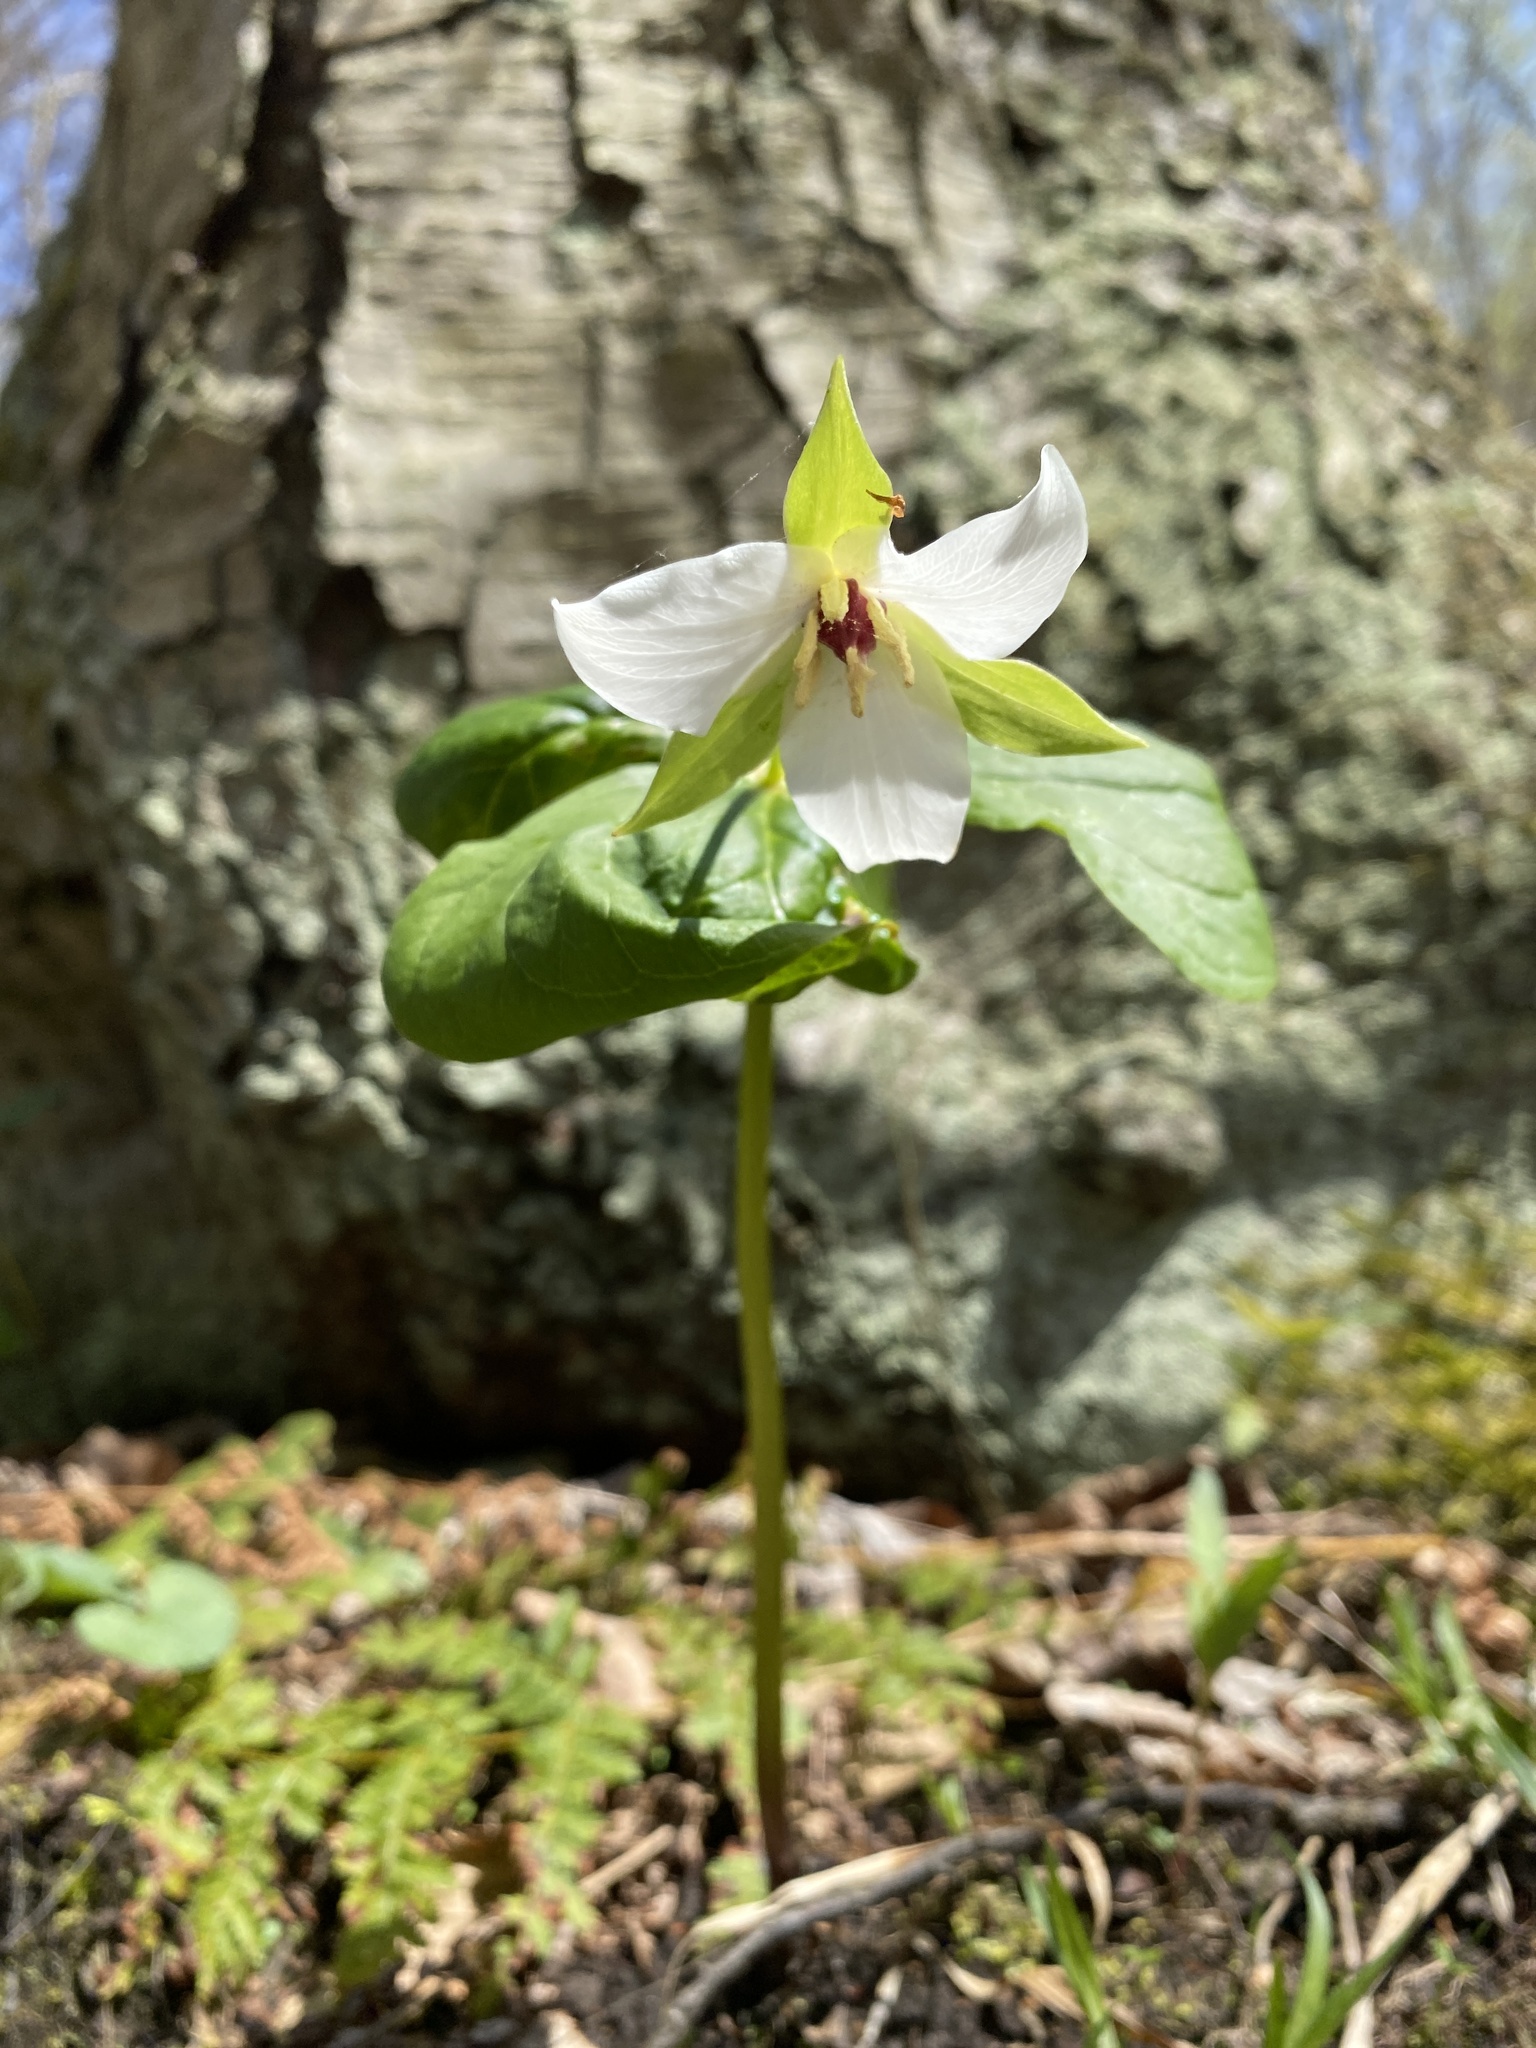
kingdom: Plantae
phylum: Tracheophyta
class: Liliopsida
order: Liliales
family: Melanthiaceae
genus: Trillium
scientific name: Trillium erectum
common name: Purple trillium
